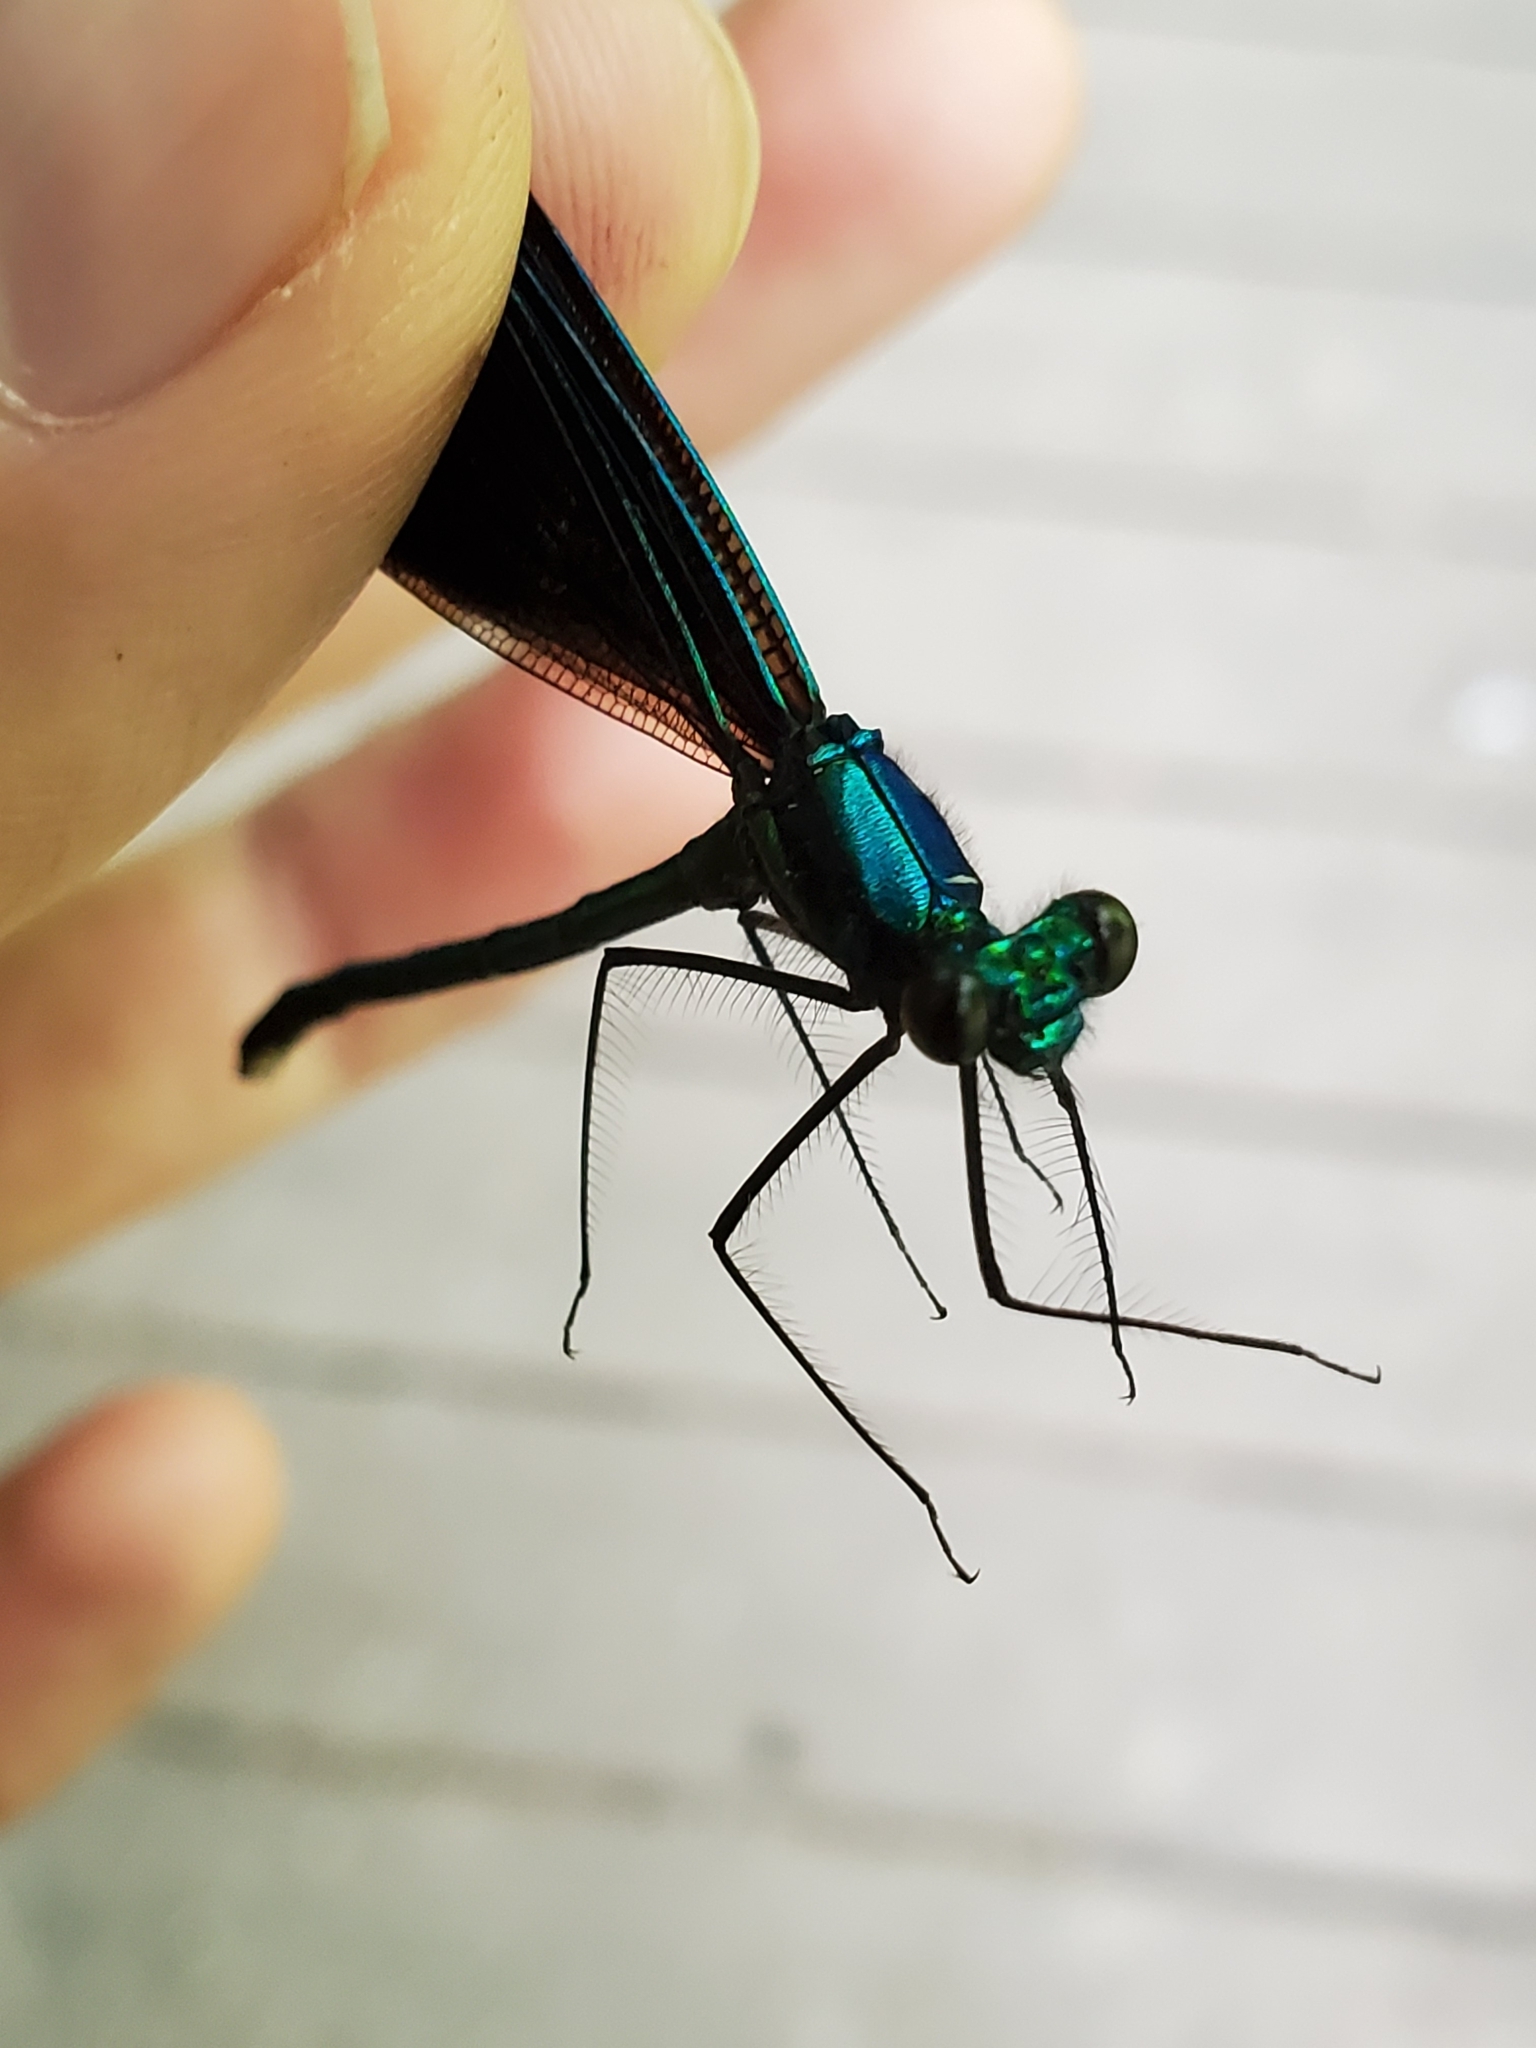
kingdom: Animalia
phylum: Arthropoda
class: Insecta
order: Odonata
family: Calopterygidae
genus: Calopteryx
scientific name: Calopteryx maculata
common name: Ebony jewelwing
